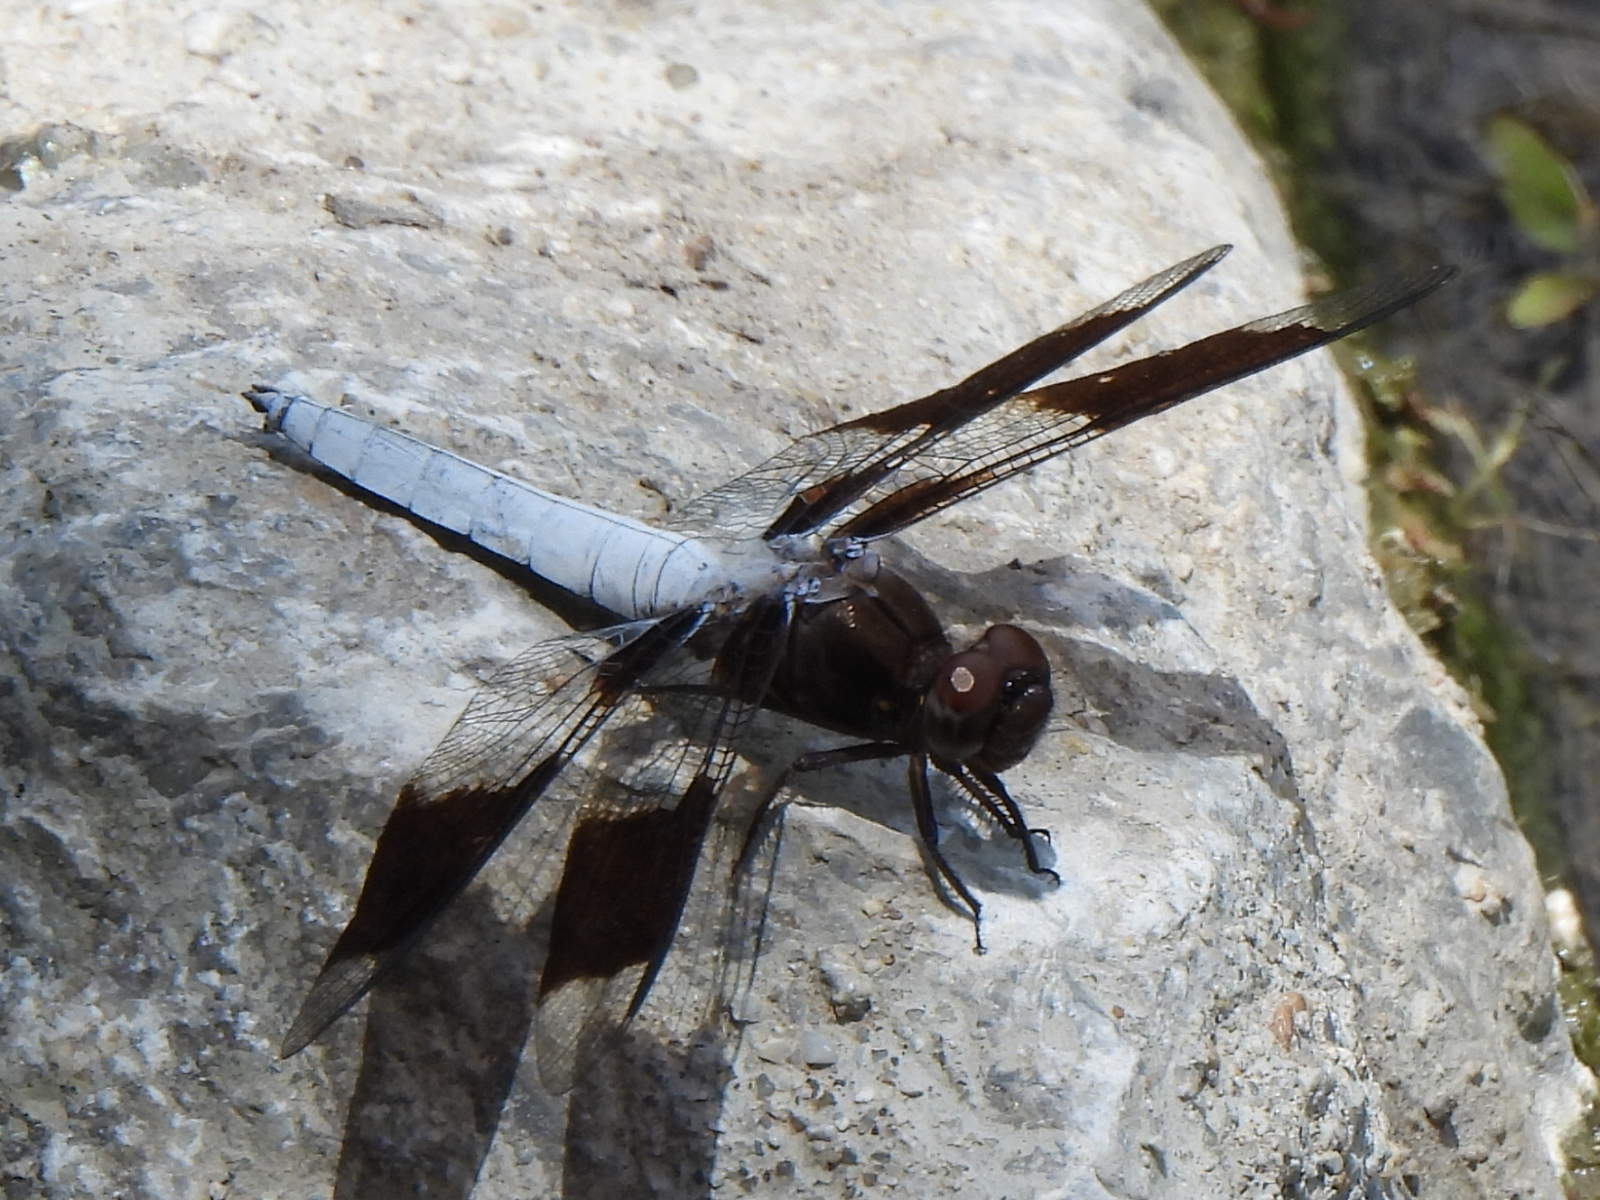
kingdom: Animalia
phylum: Arthropoda
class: Insecta
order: Odonata
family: Libellulidae
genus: Plathemis
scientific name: Plathemis lydia
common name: Common whitetail
